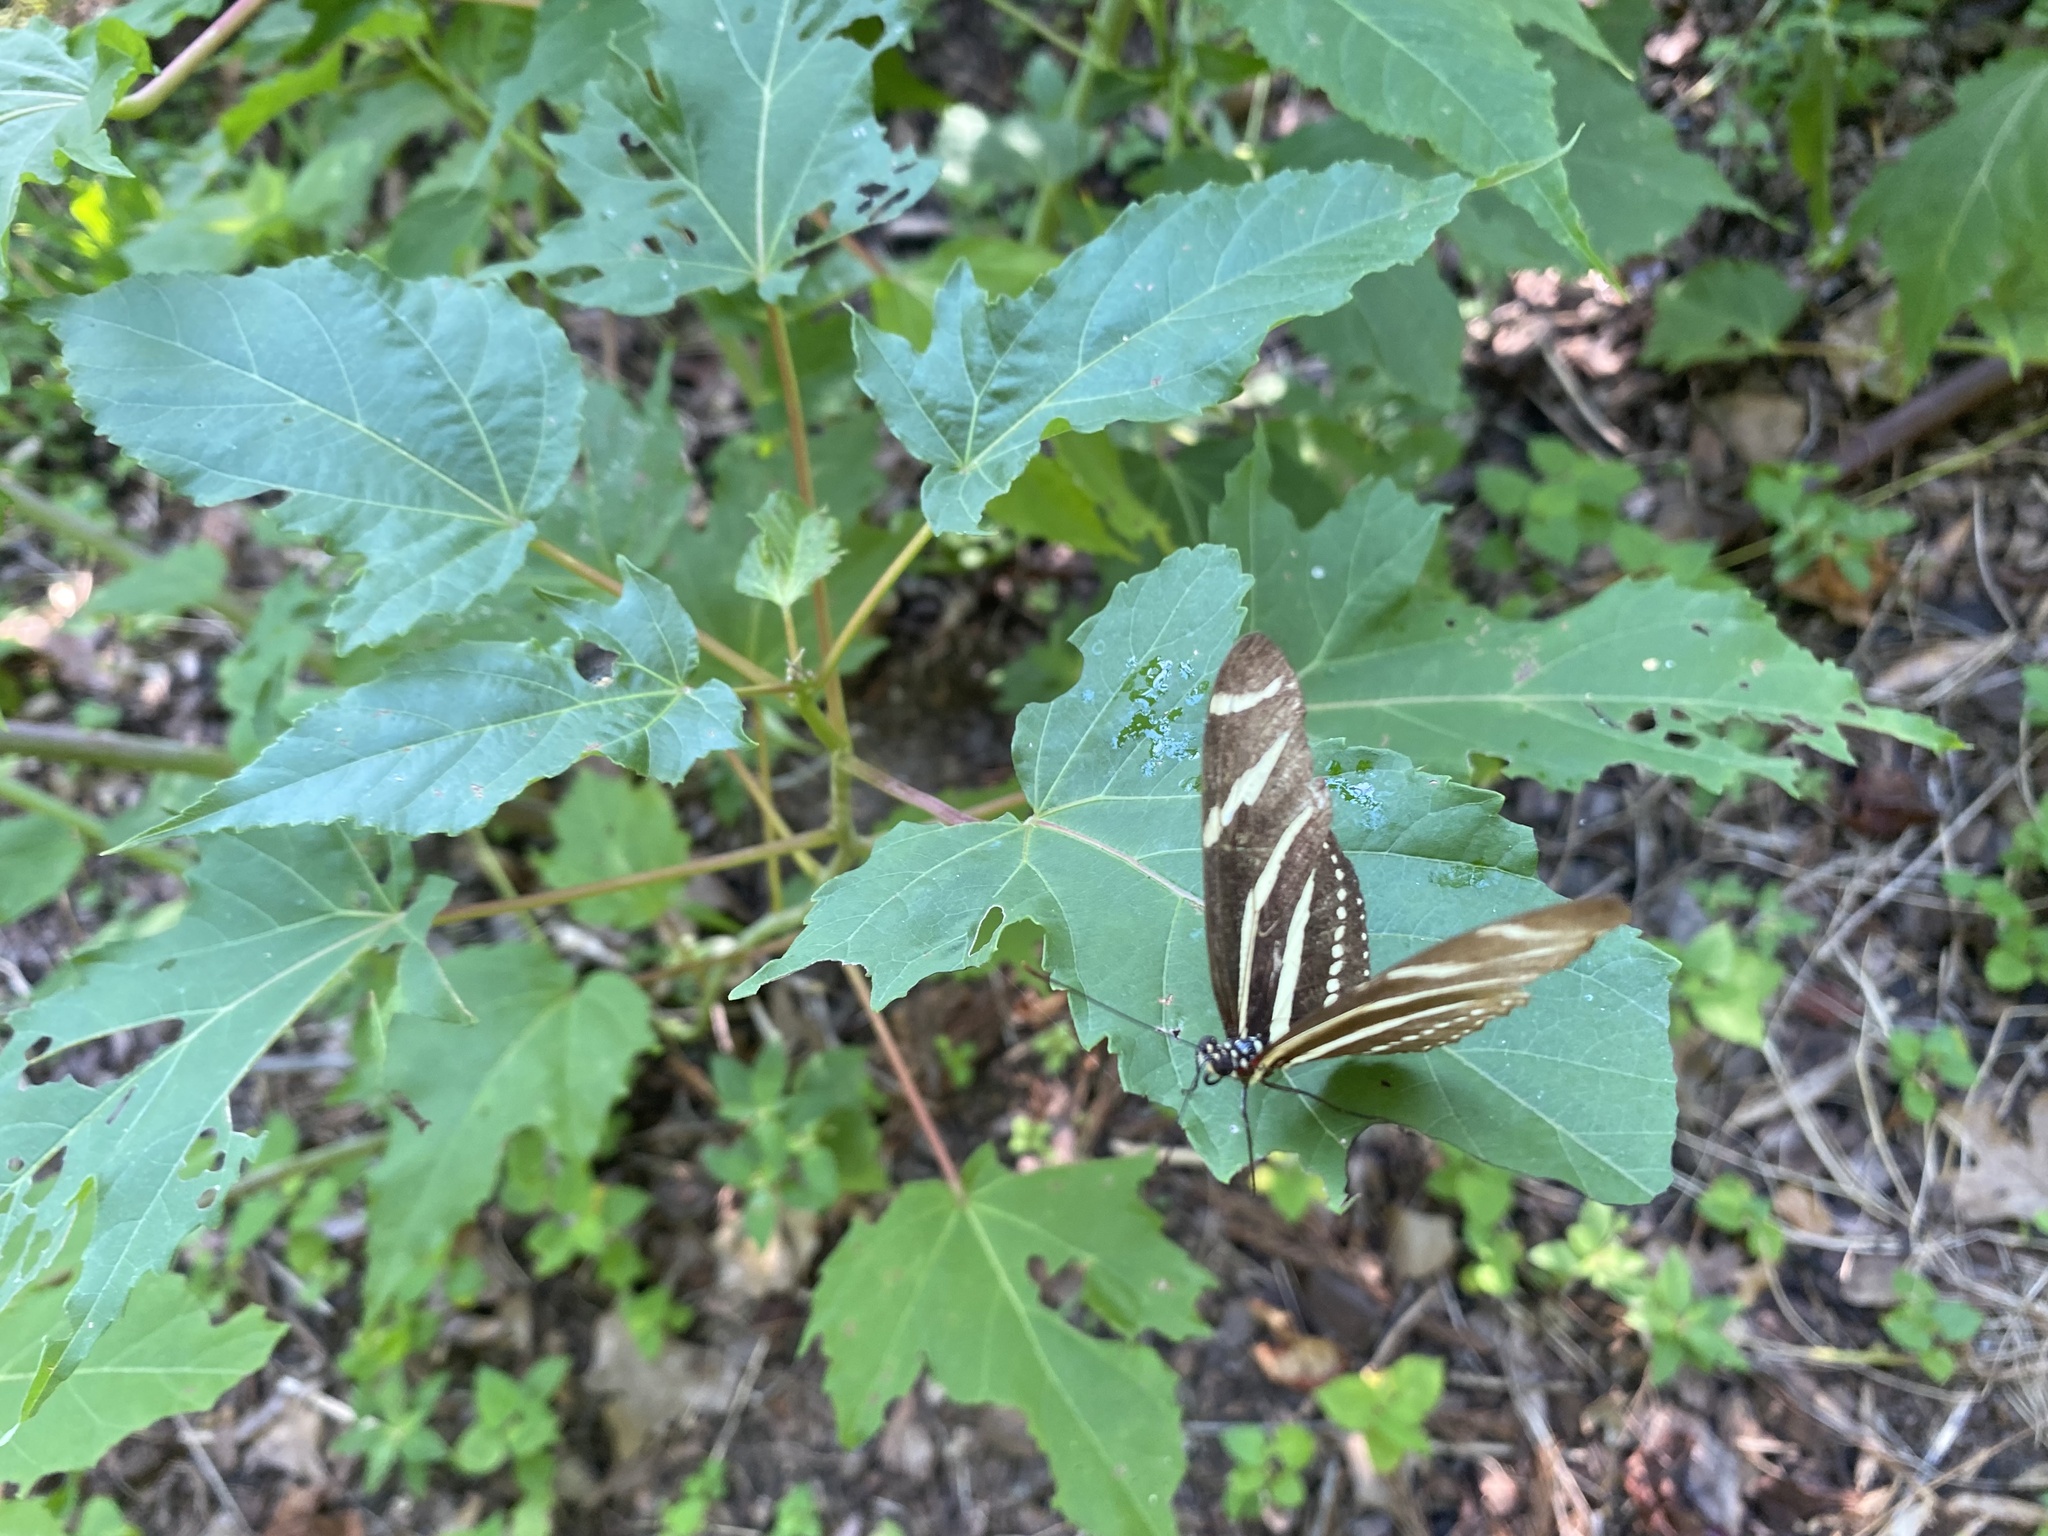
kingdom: Animalia
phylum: Arthropoda
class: Insecta
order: Lepidoptera
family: Nymphalidae
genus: Heliconius
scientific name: Heliconius charithonia
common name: Zebra long wing
